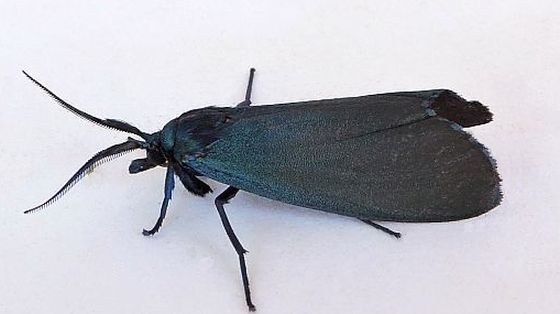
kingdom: Animalia
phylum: Arthropoda
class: Insecta
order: Lepidoptera
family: Erebidae
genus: Gardinia
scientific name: Gardinia anopla
